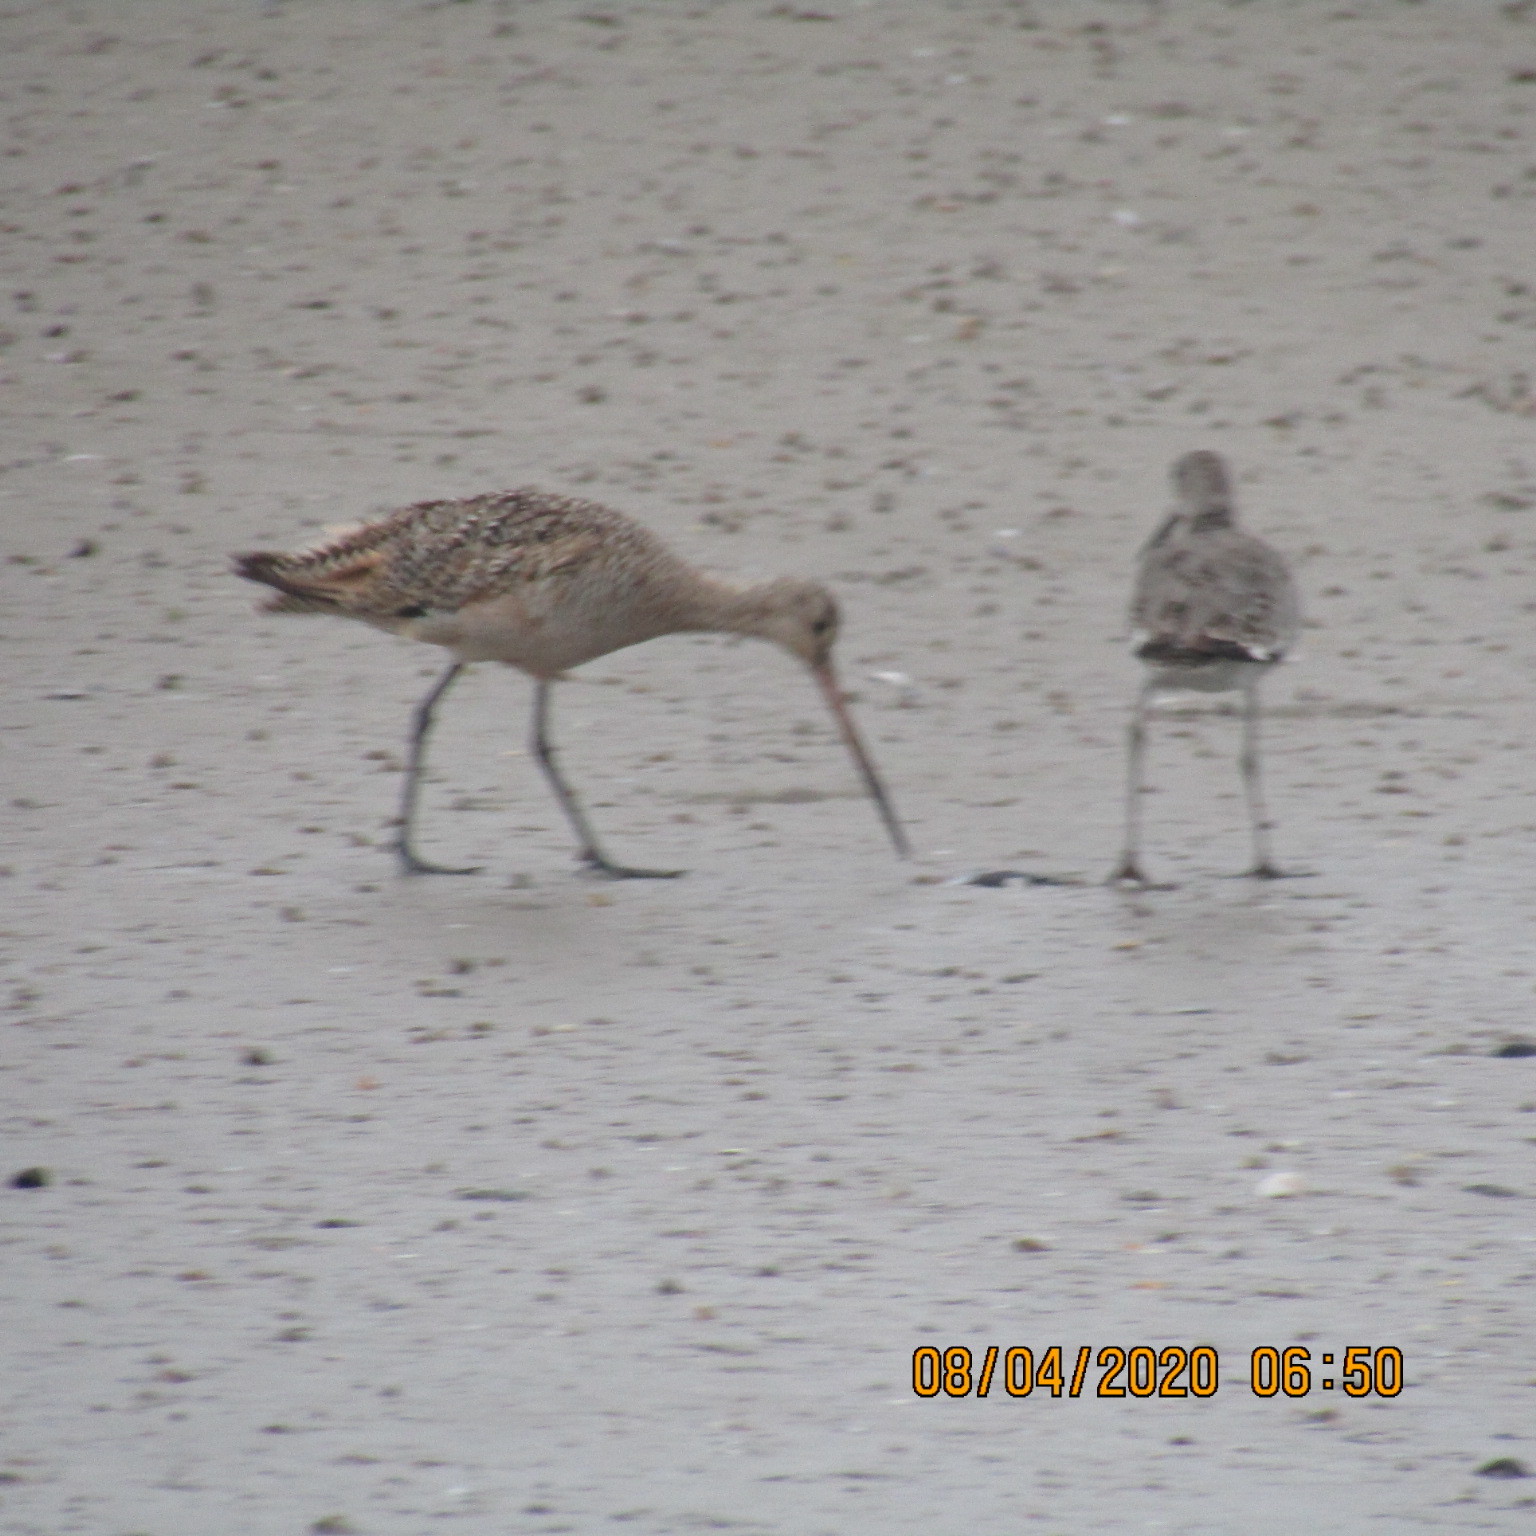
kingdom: Animalia
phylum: Chordata
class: Aves
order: Charadriiformes
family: Scolopacidae
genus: Limosa
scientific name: Limosa fedoa
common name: Marbled godwit
